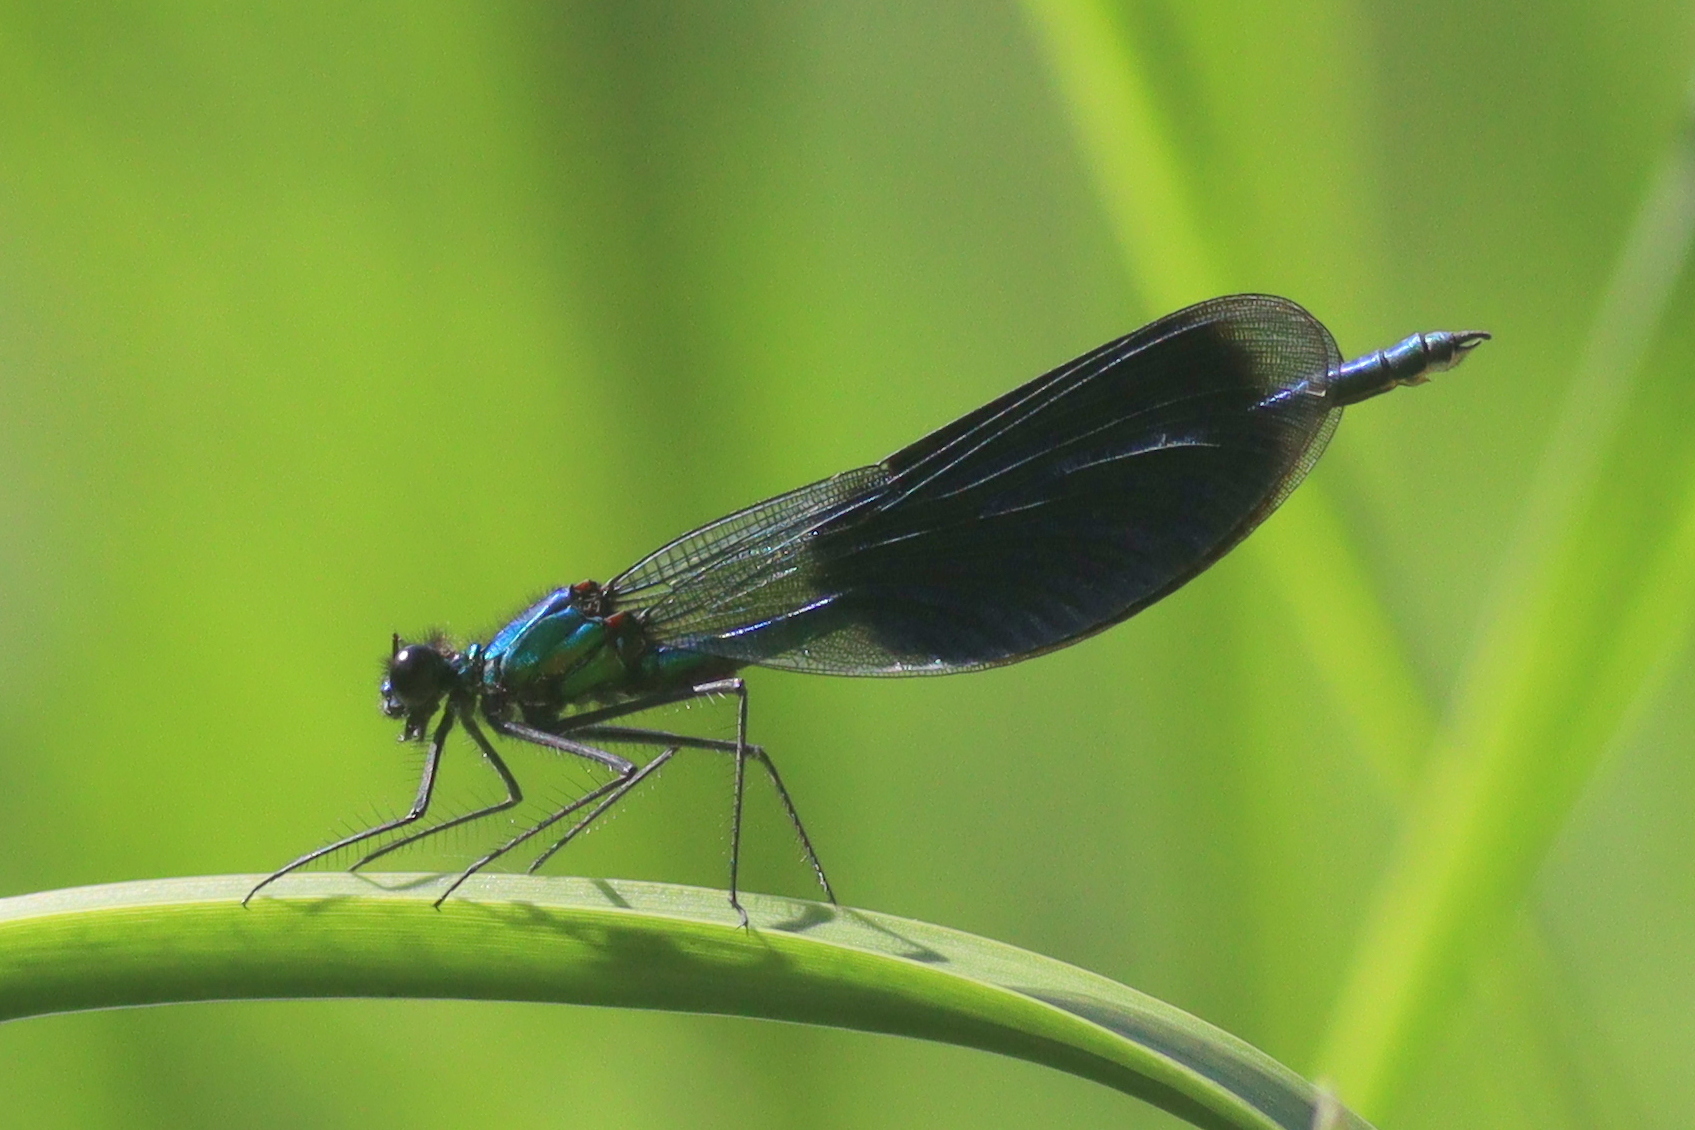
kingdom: Animalia
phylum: Arthropoda
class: Insecta
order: Odonata
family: Calopterygidae
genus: Calopteryx
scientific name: Calopteryx splendens
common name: Banded demoiselle
